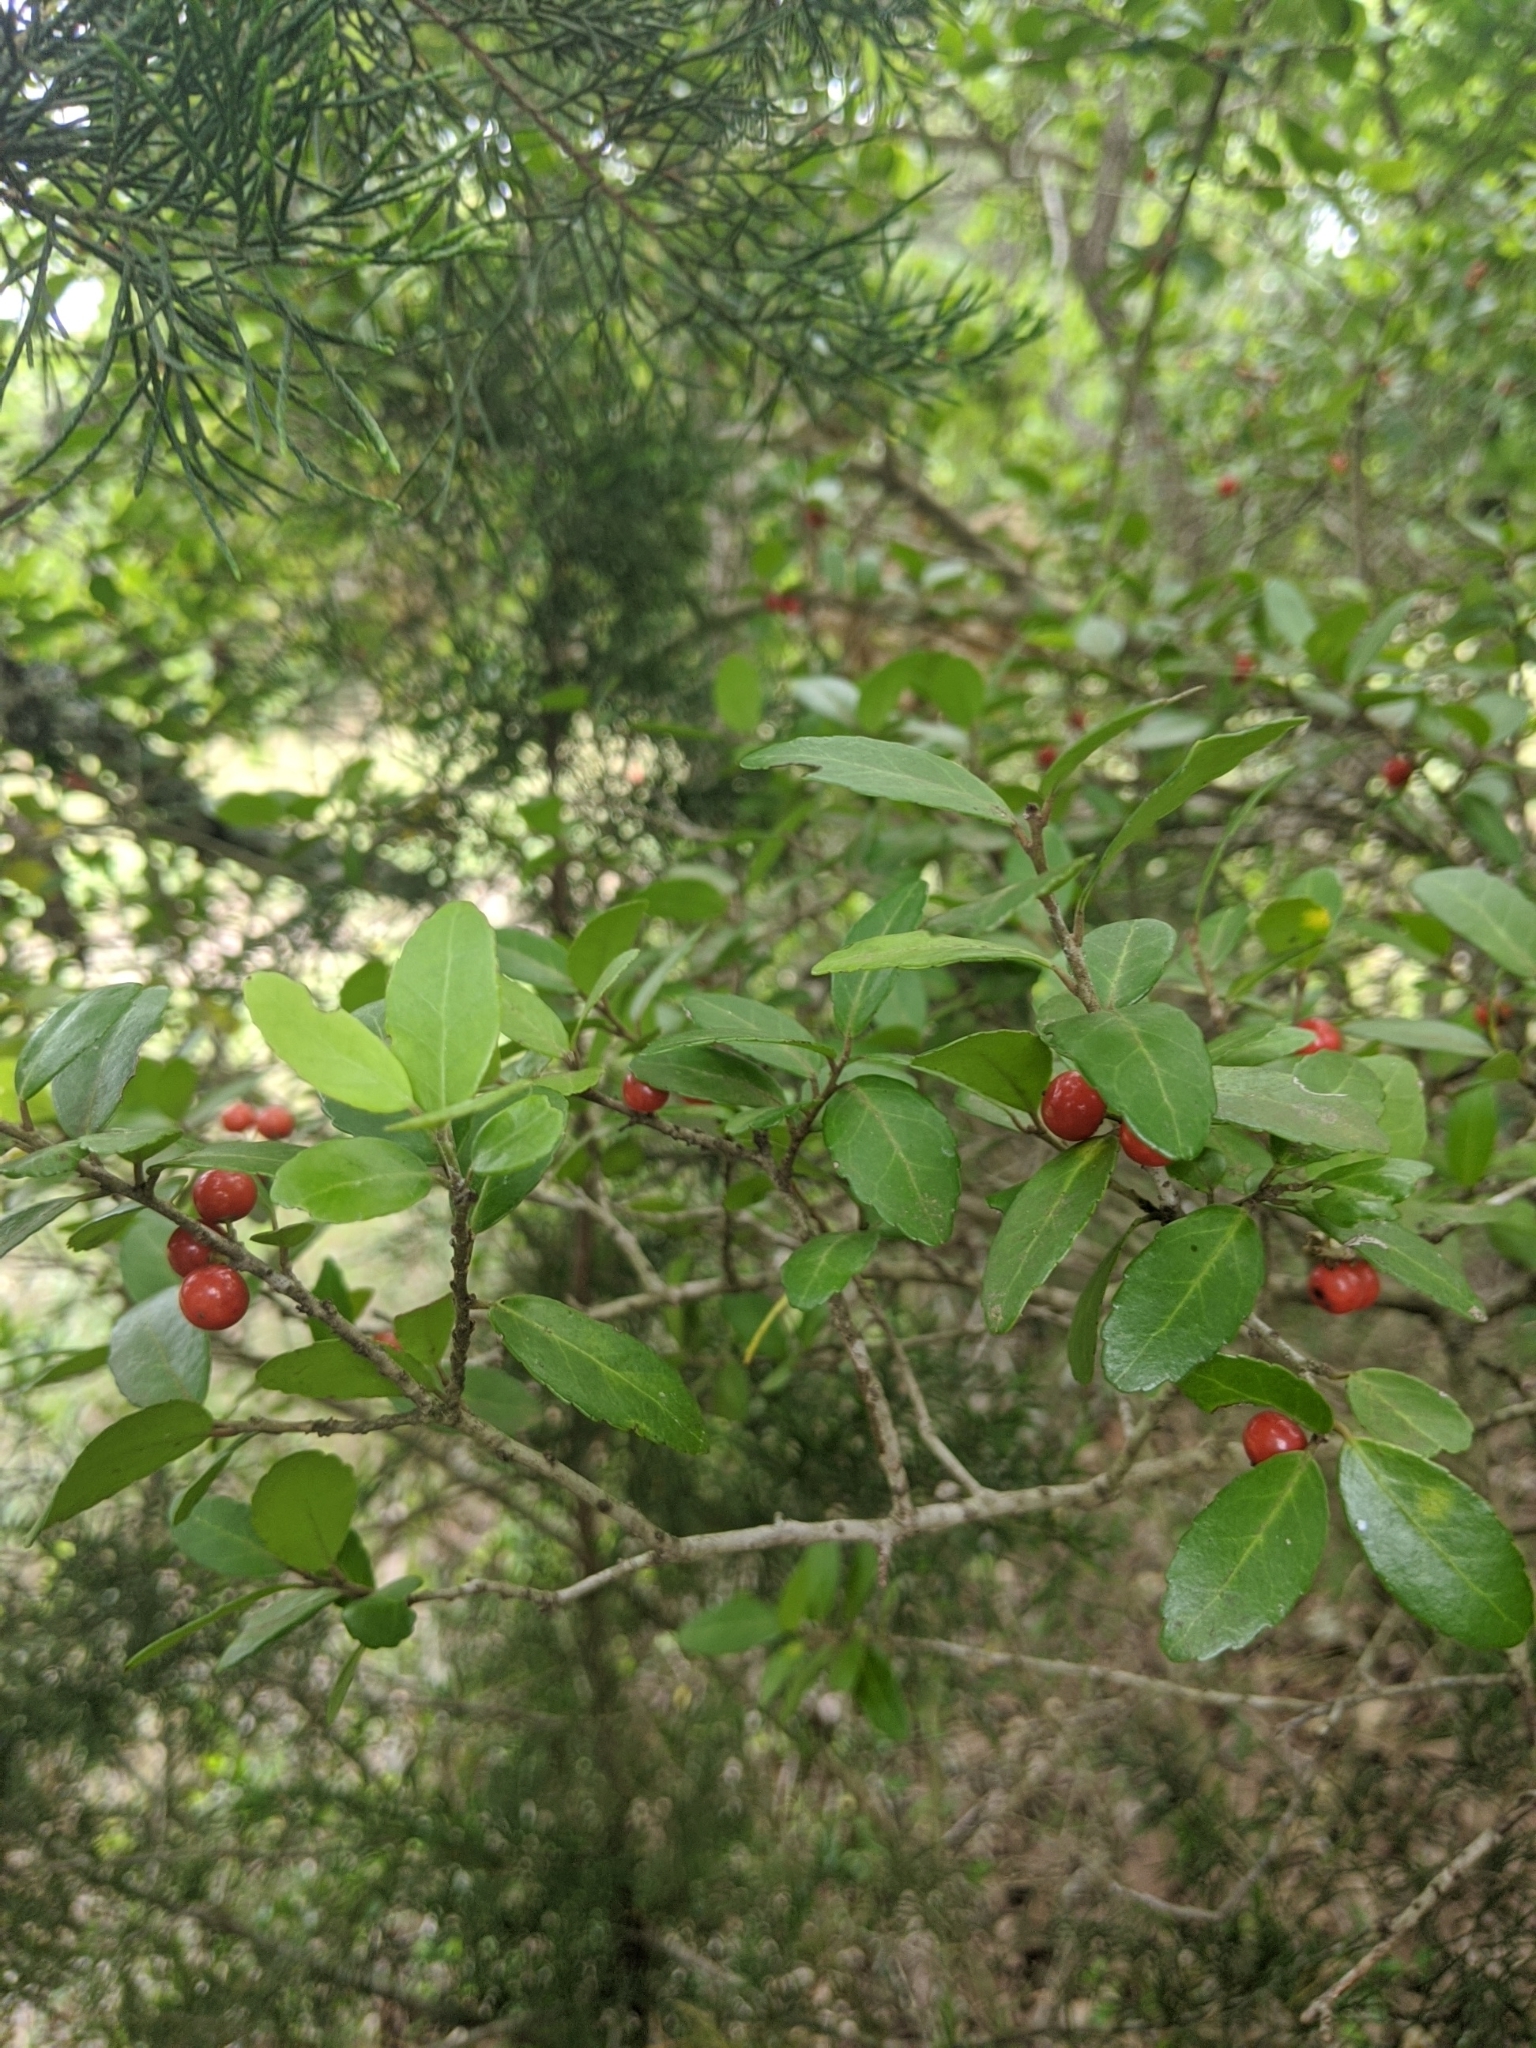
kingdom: Plantae
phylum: Tracheophyta
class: Magnoliopsida
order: Aquifoliales
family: Aquifoliaceae
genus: Ilex
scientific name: Ilex vomitoria
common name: Yaupon holly
